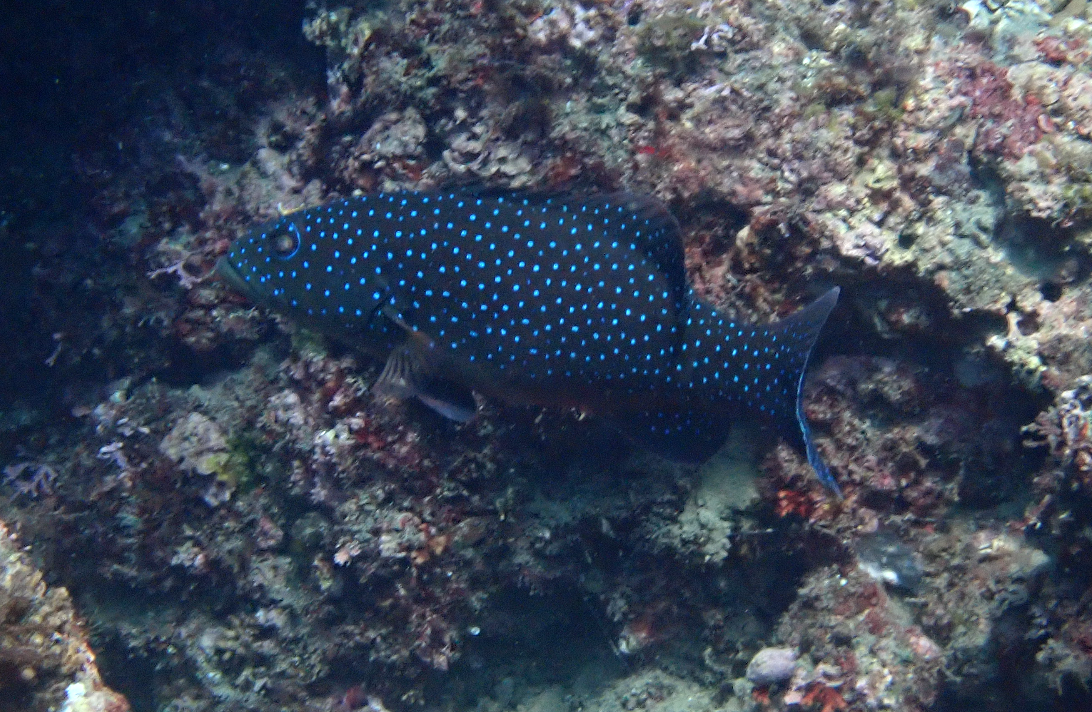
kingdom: Animalia
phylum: Chordata
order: Perciformes
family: Serranidae
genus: Plectropomus
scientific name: Plectropomus leopardus
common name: Coral trout
